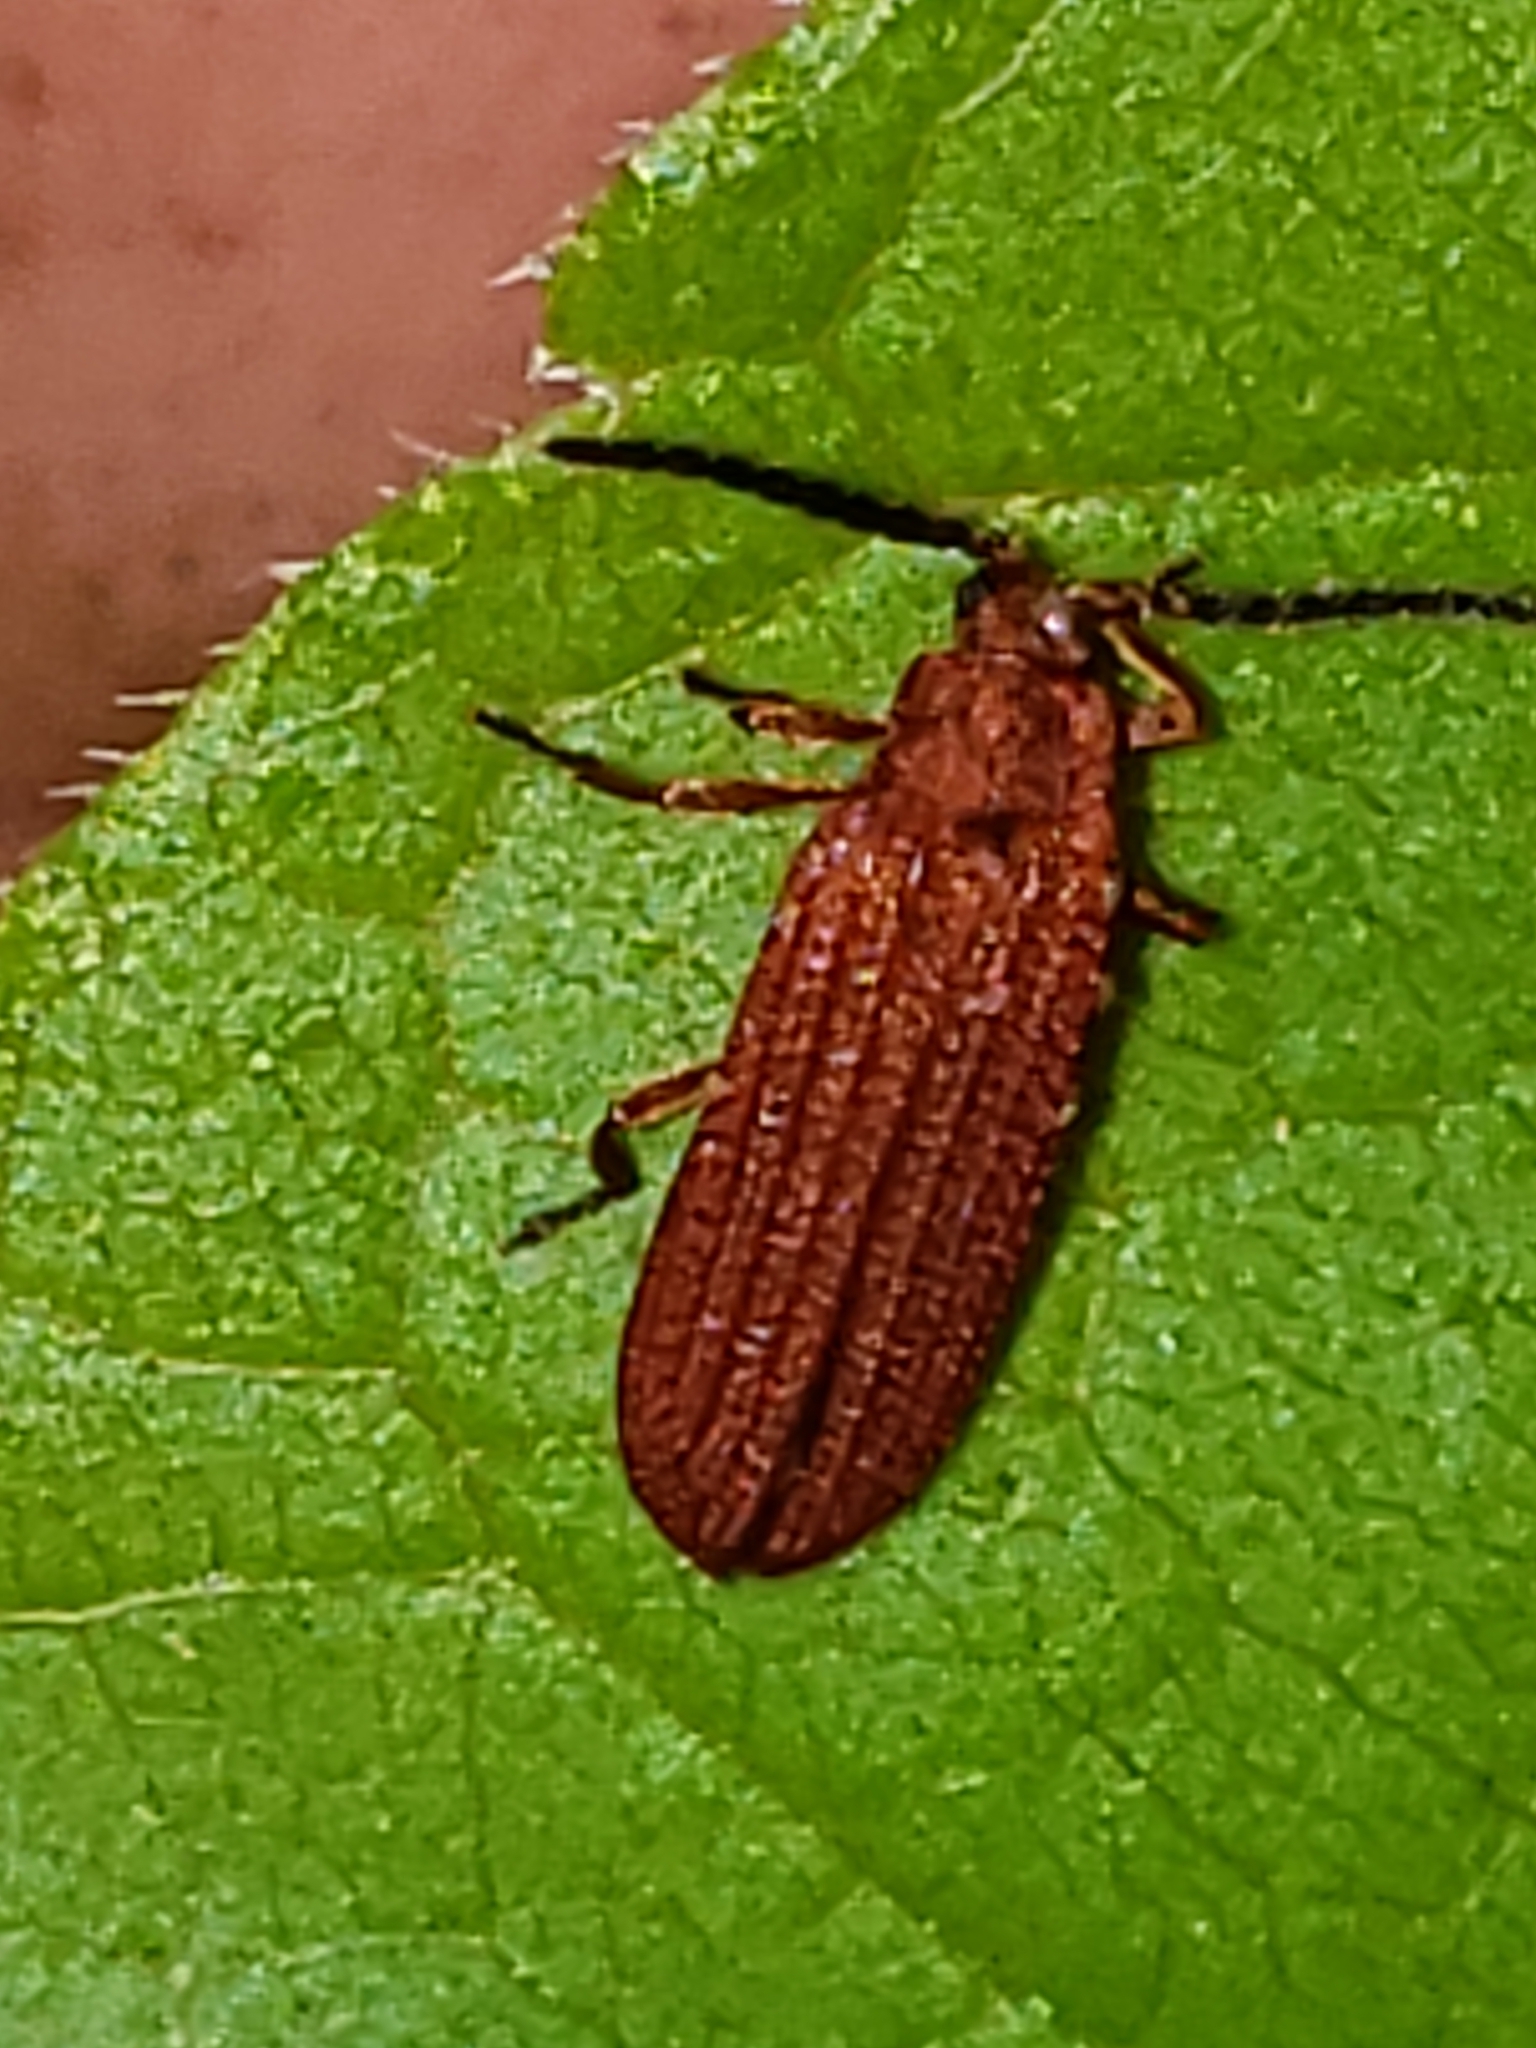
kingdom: Animalia
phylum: Arthropoda
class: Insecta
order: Coleoptera
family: Lycidae
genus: Punicealis
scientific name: Punicealis
